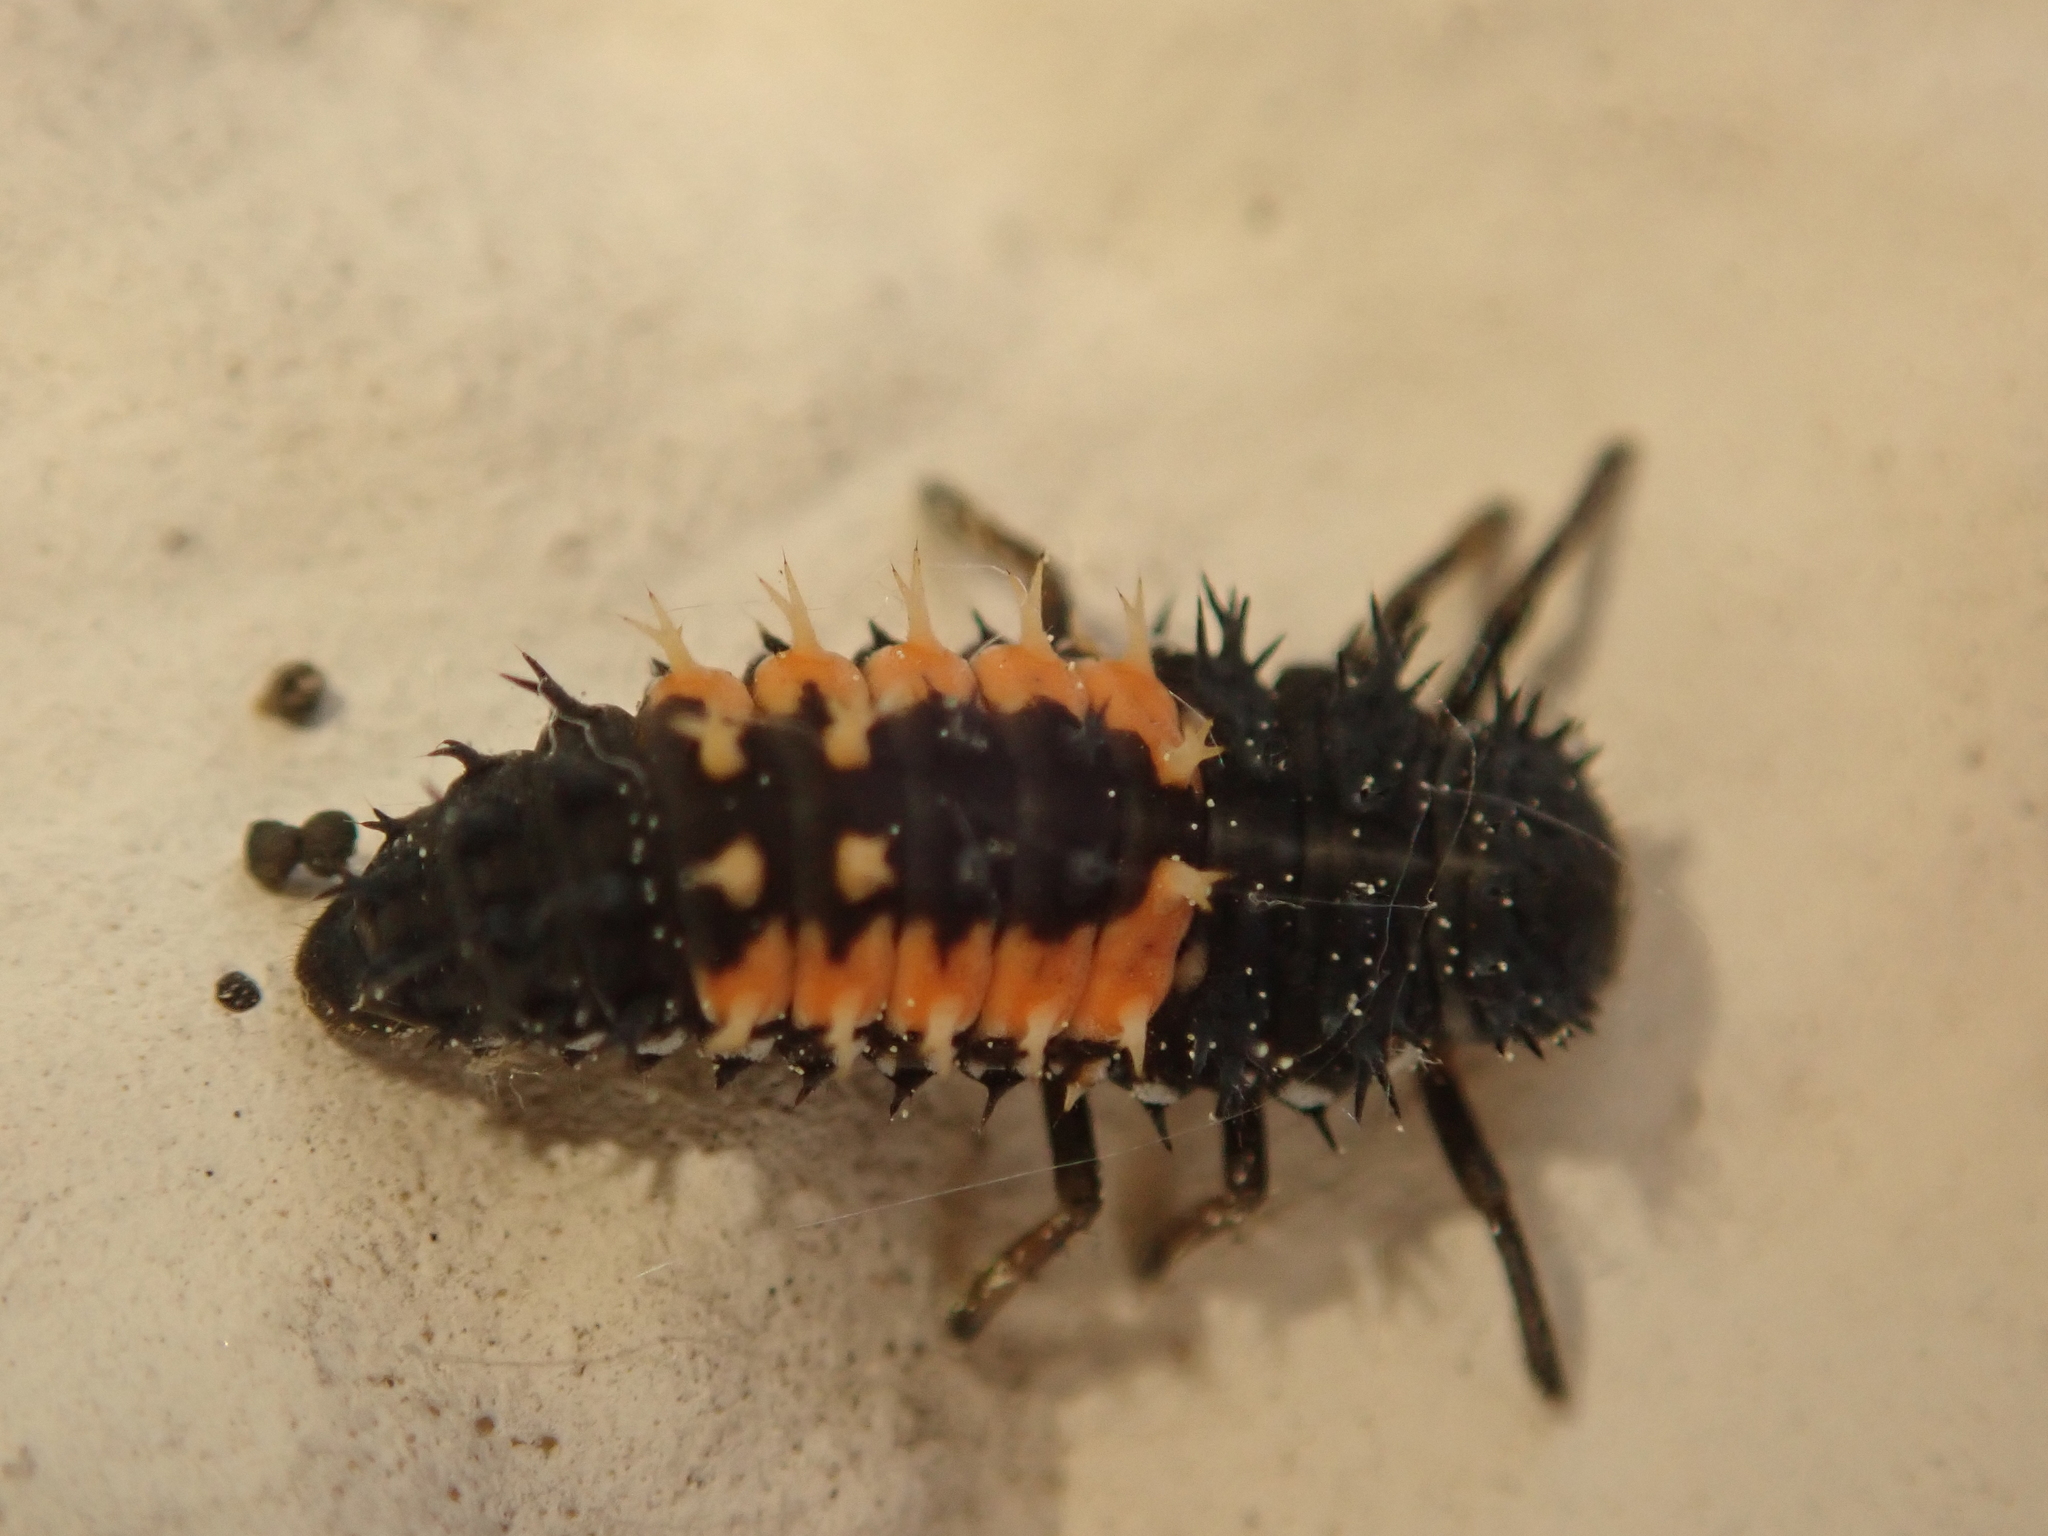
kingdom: Animalia
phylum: Arthropoda
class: Insecta
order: Coleoptera
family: Coccinellidae
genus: Harmonia
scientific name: Harmonia axyridis
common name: Harlequin ladybird
